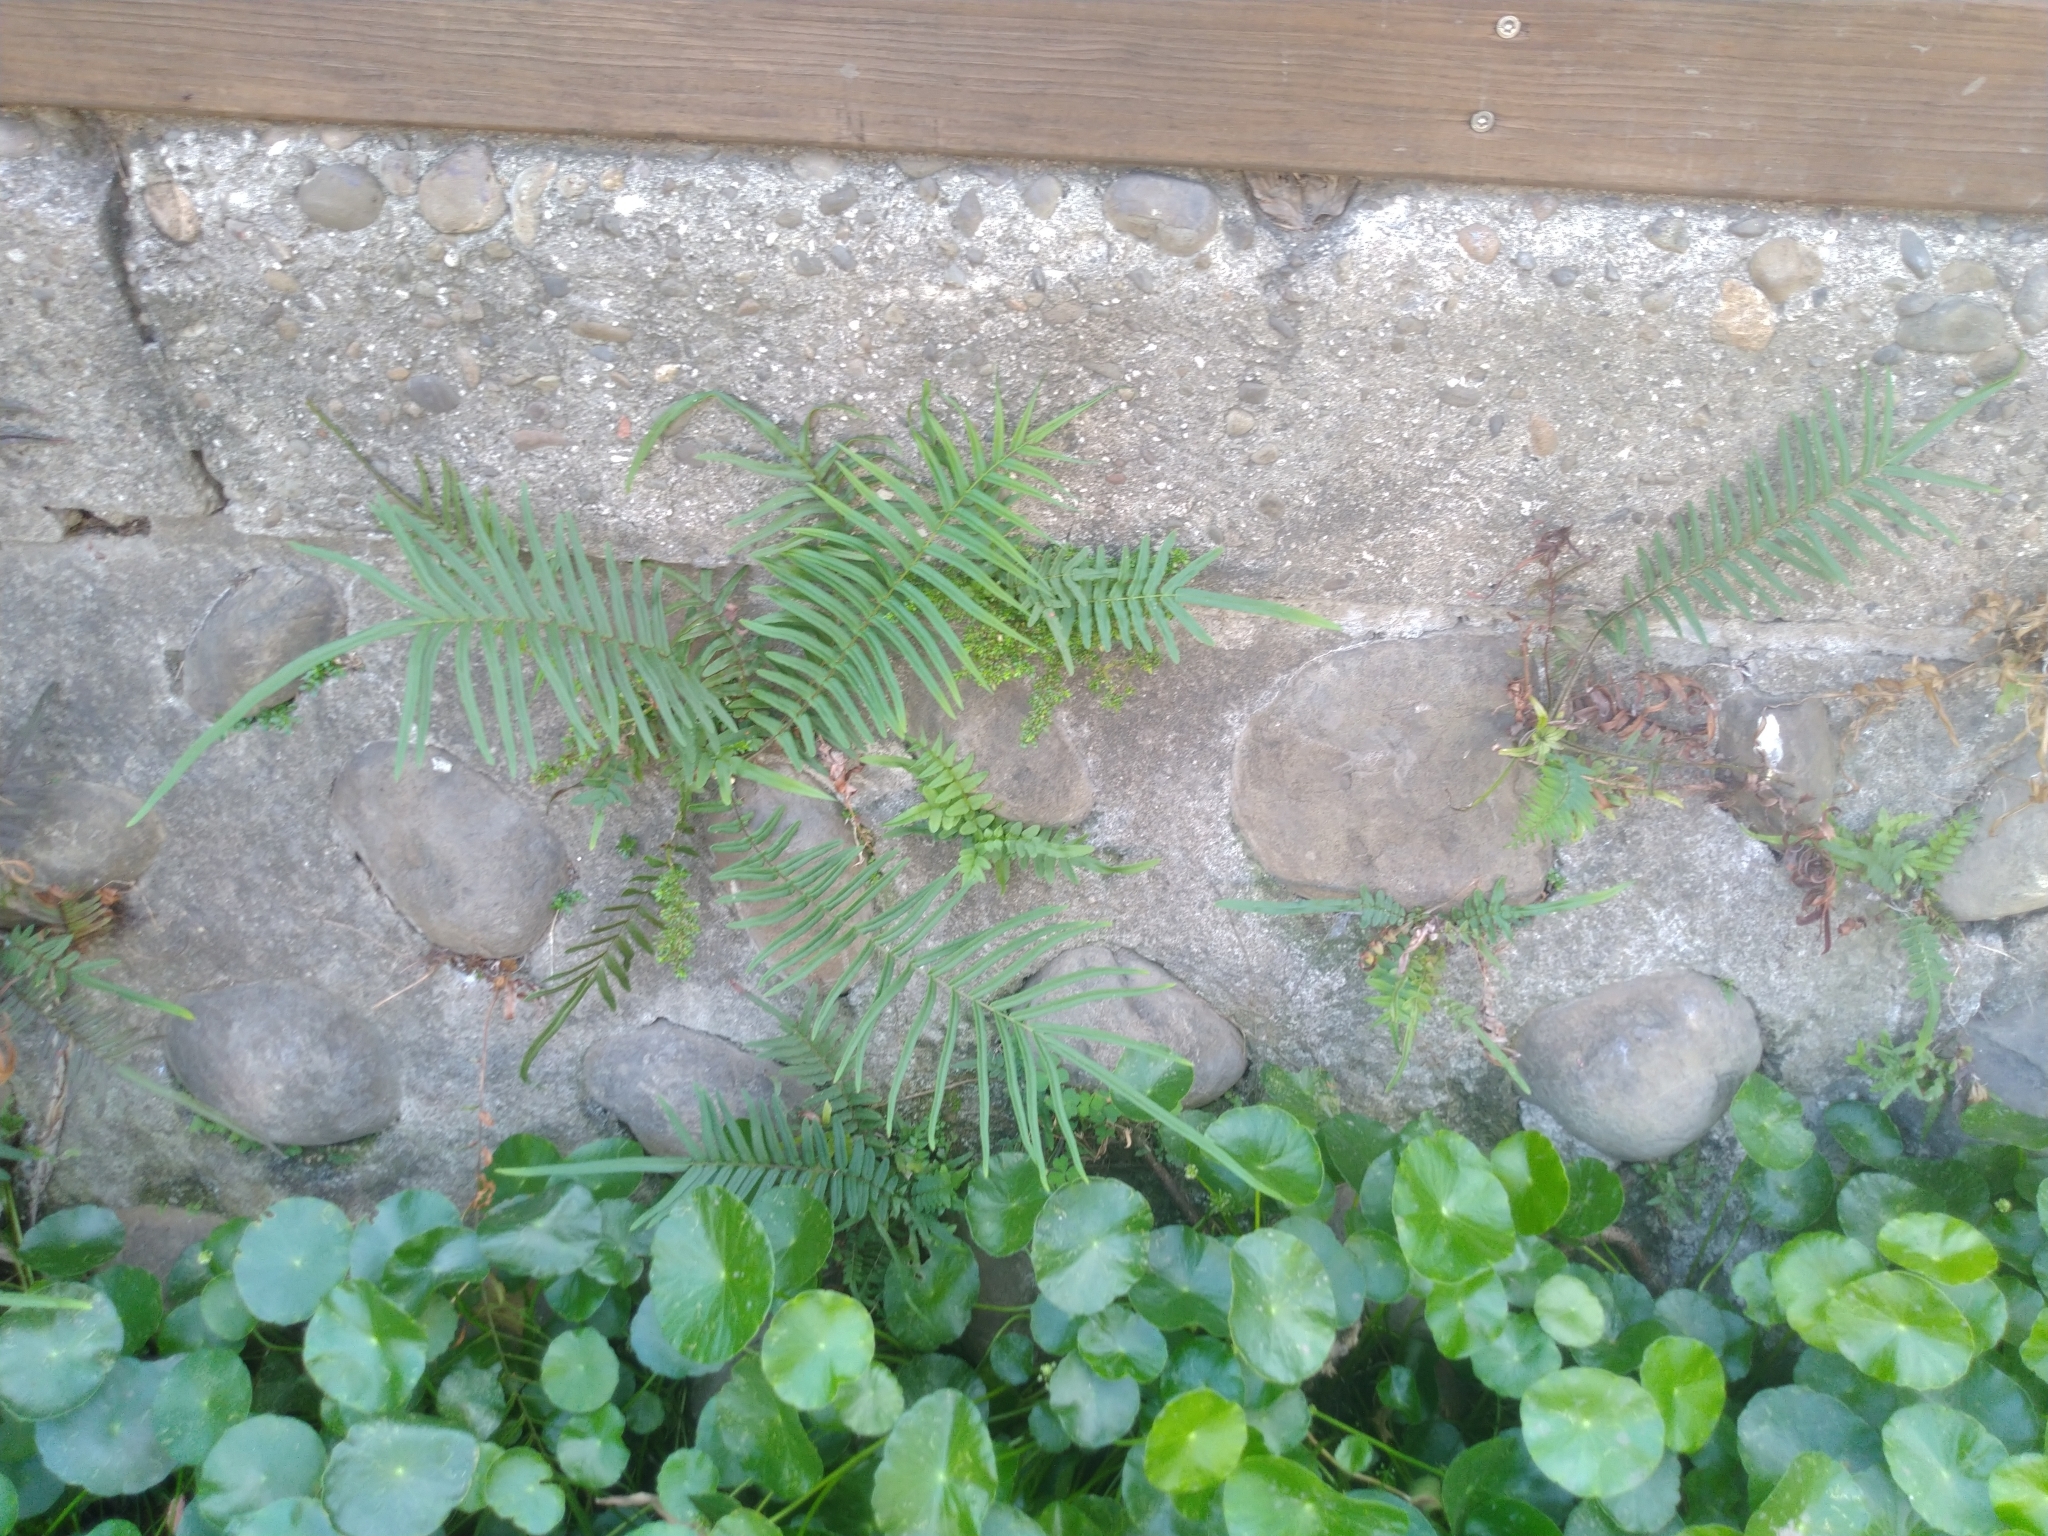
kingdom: Plantae
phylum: Tracheophyta
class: Polypodiopsida
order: Polypodiales
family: Pteridaceae
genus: Pteris
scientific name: Pteris vittata
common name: Ladder brake
